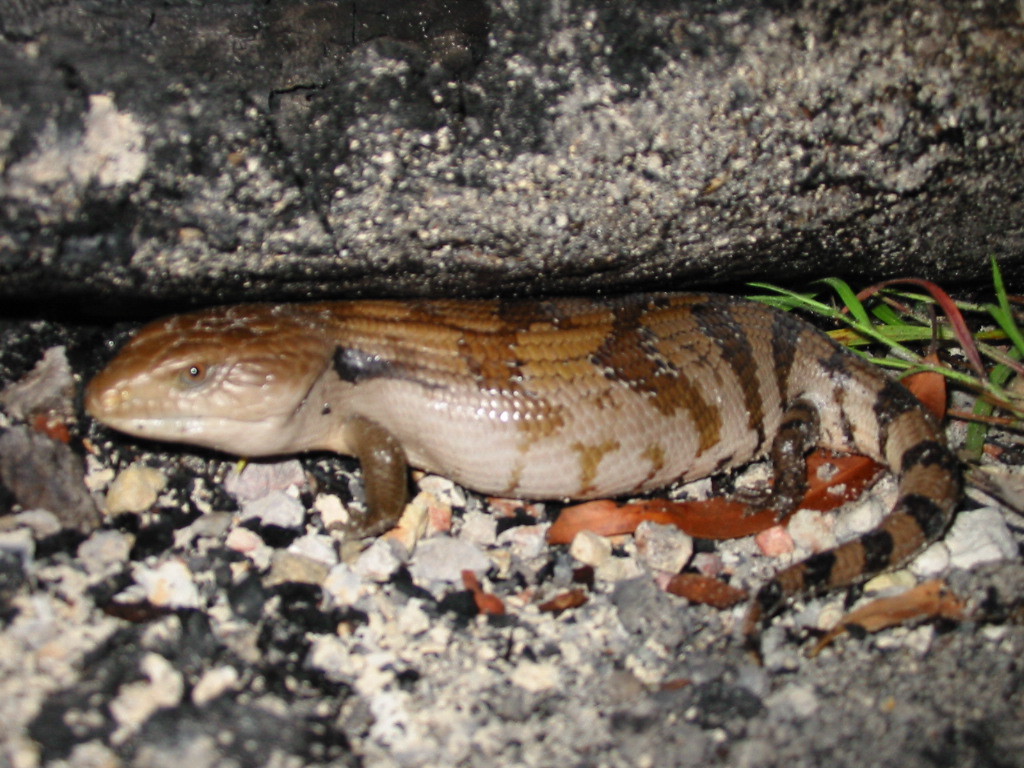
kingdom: Animalia
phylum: Chordata
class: Squamata
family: Scincidae
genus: Tiliqua
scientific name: Tiliqua scincoides
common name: Common bluetongue
